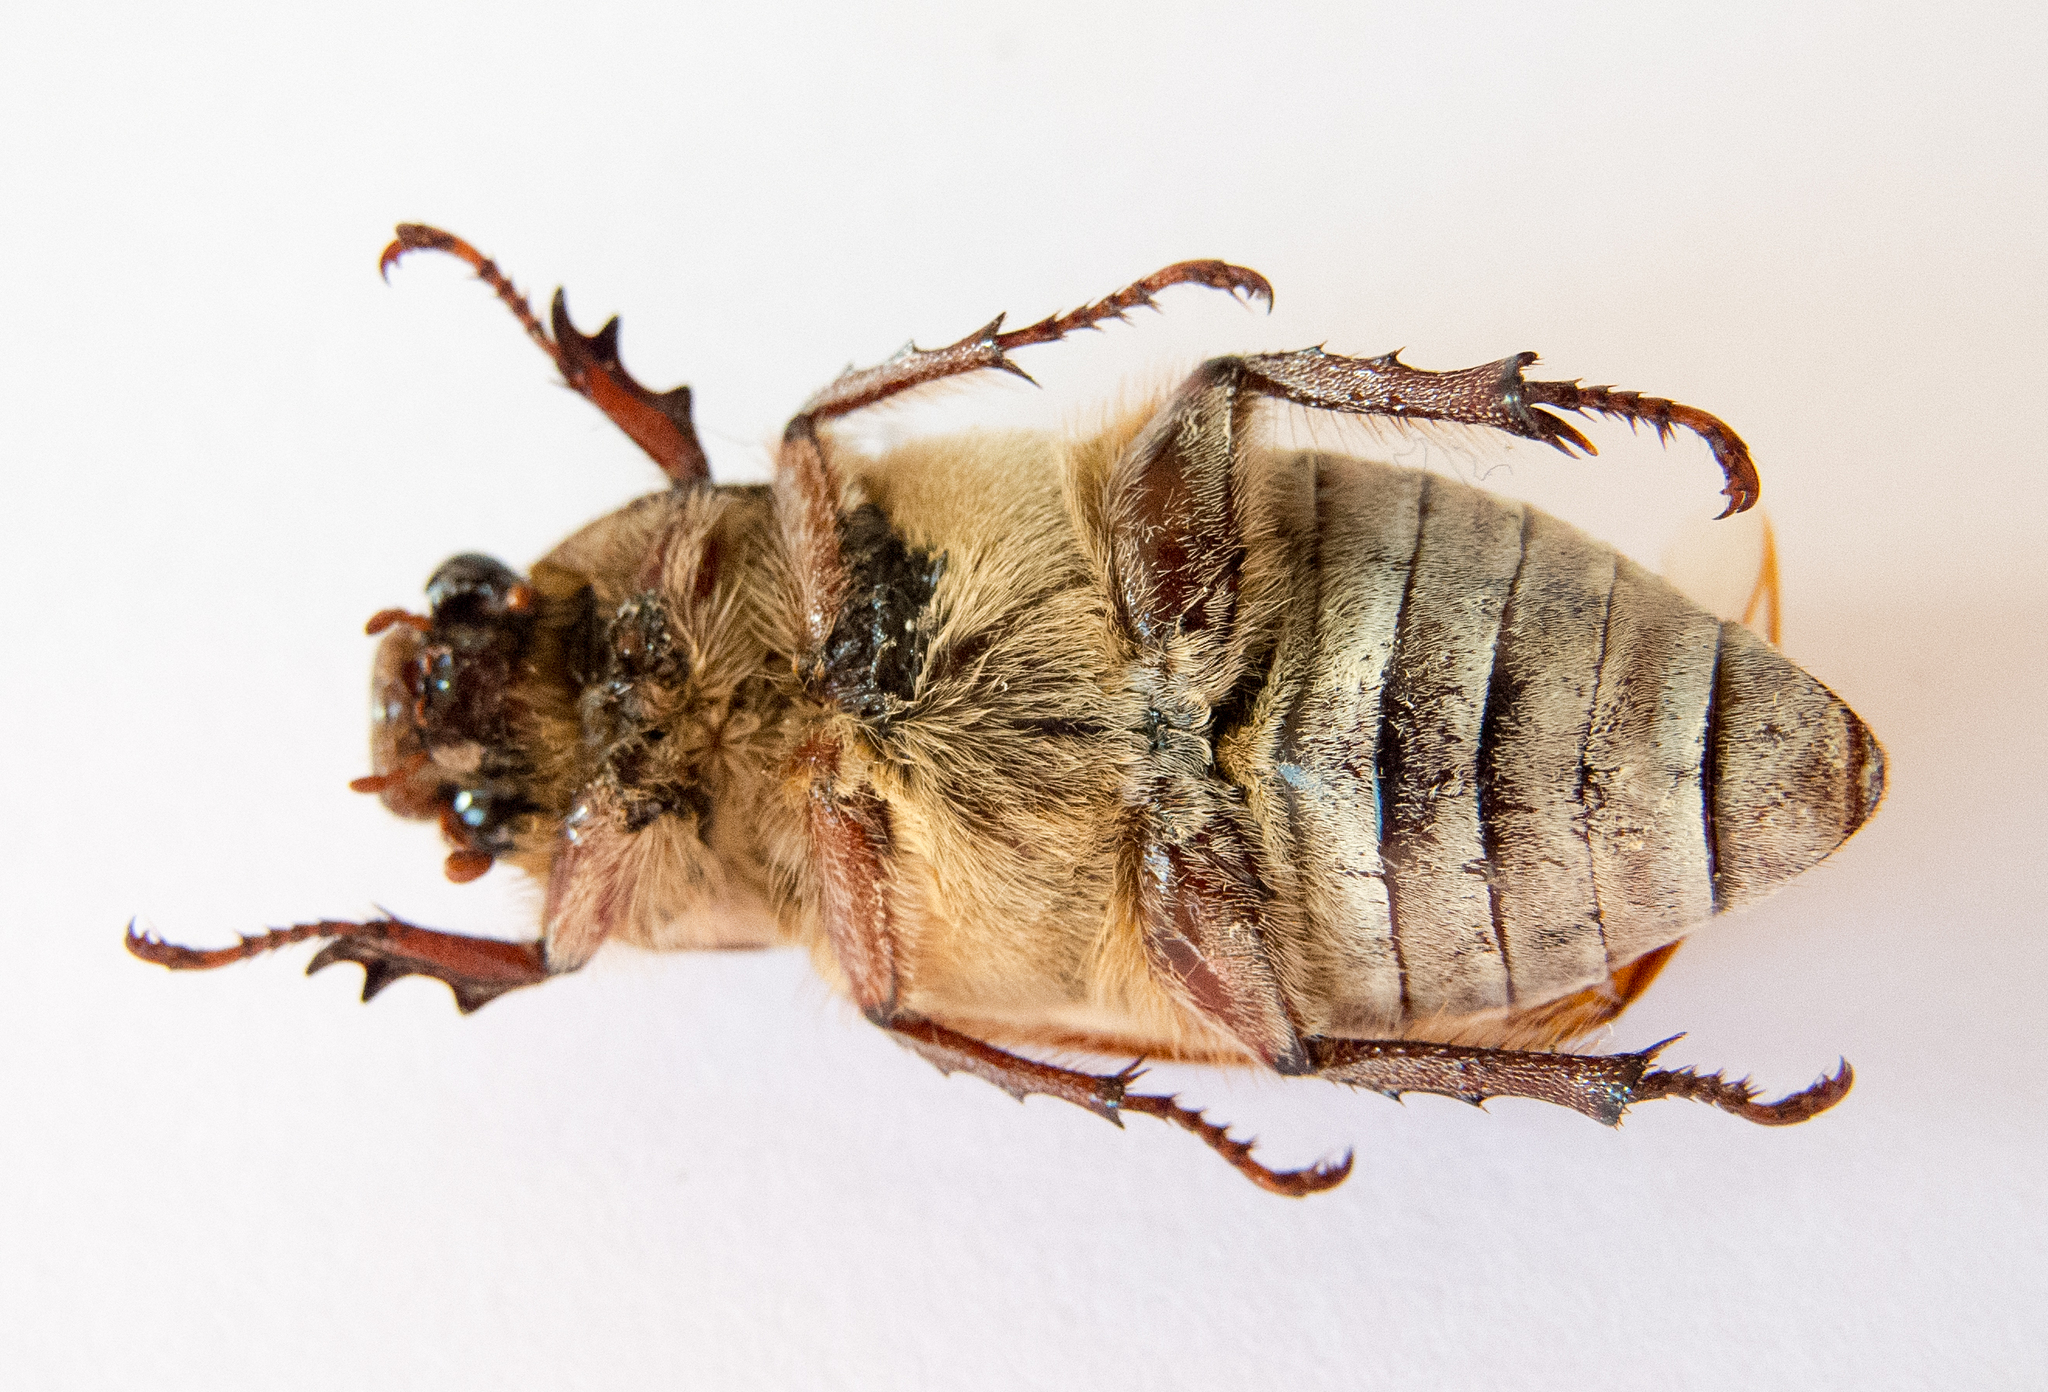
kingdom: Animalia
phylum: Arthropoda
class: Insecta
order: Coleoptera
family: Scarabaeidae
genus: Anoxia
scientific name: Anoxia orientalis
